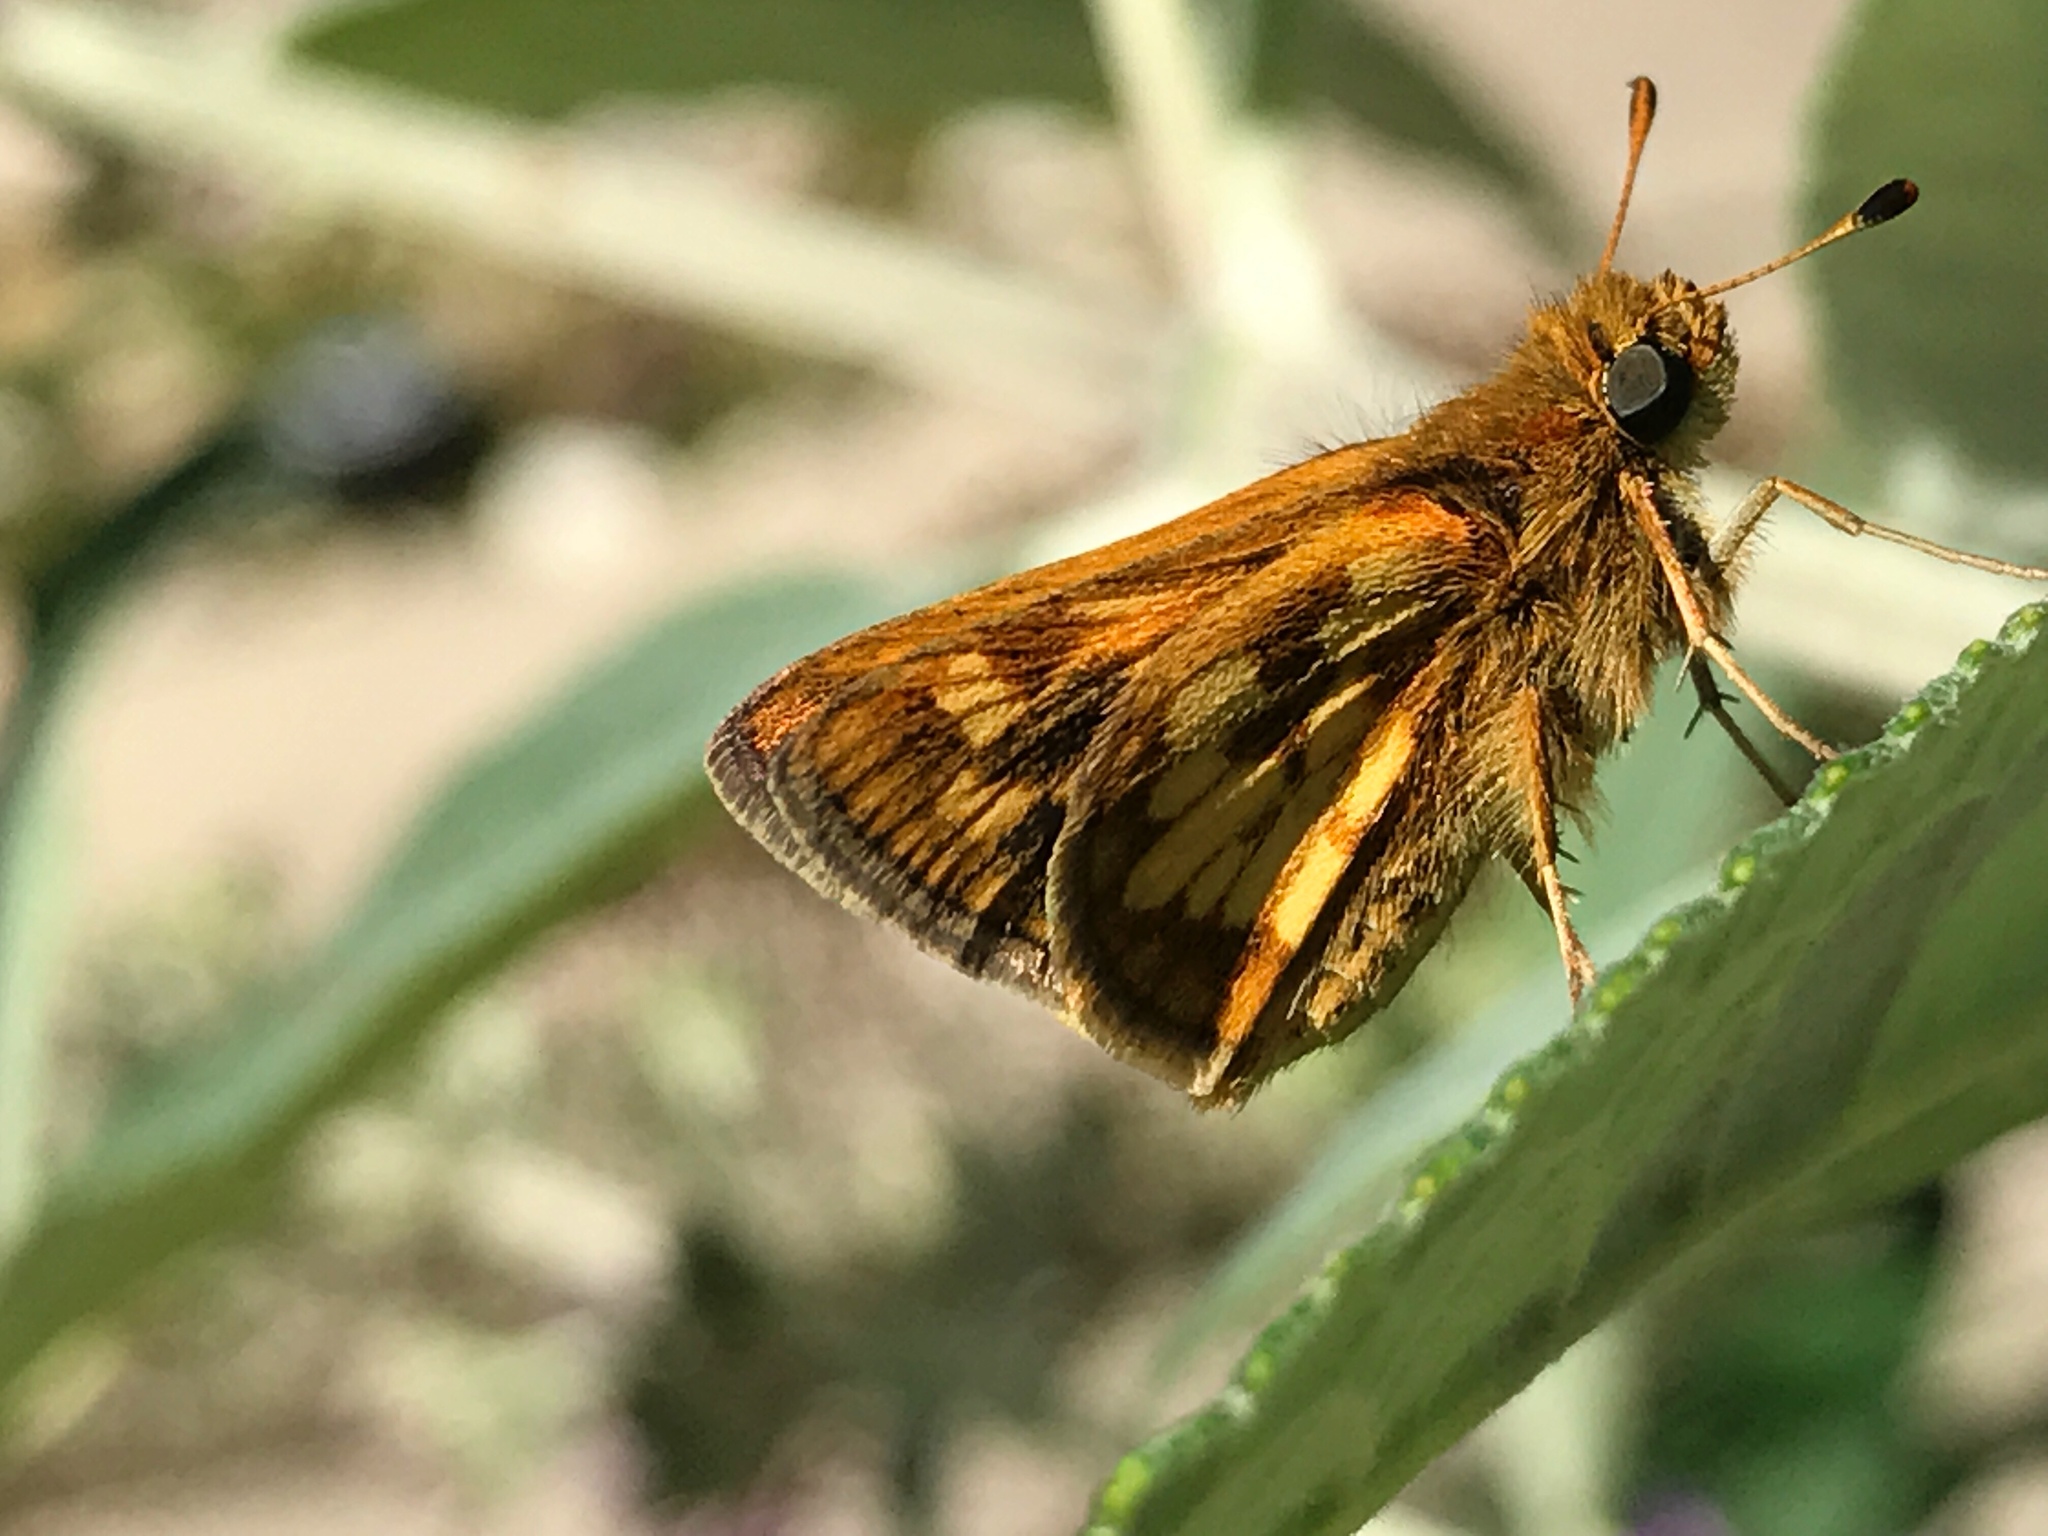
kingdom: Animalia
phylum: Arthropoda
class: Insecta
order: Lepidoptera
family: Hesperiidae
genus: Polites
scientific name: Polites coras
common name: Peck's skipper
